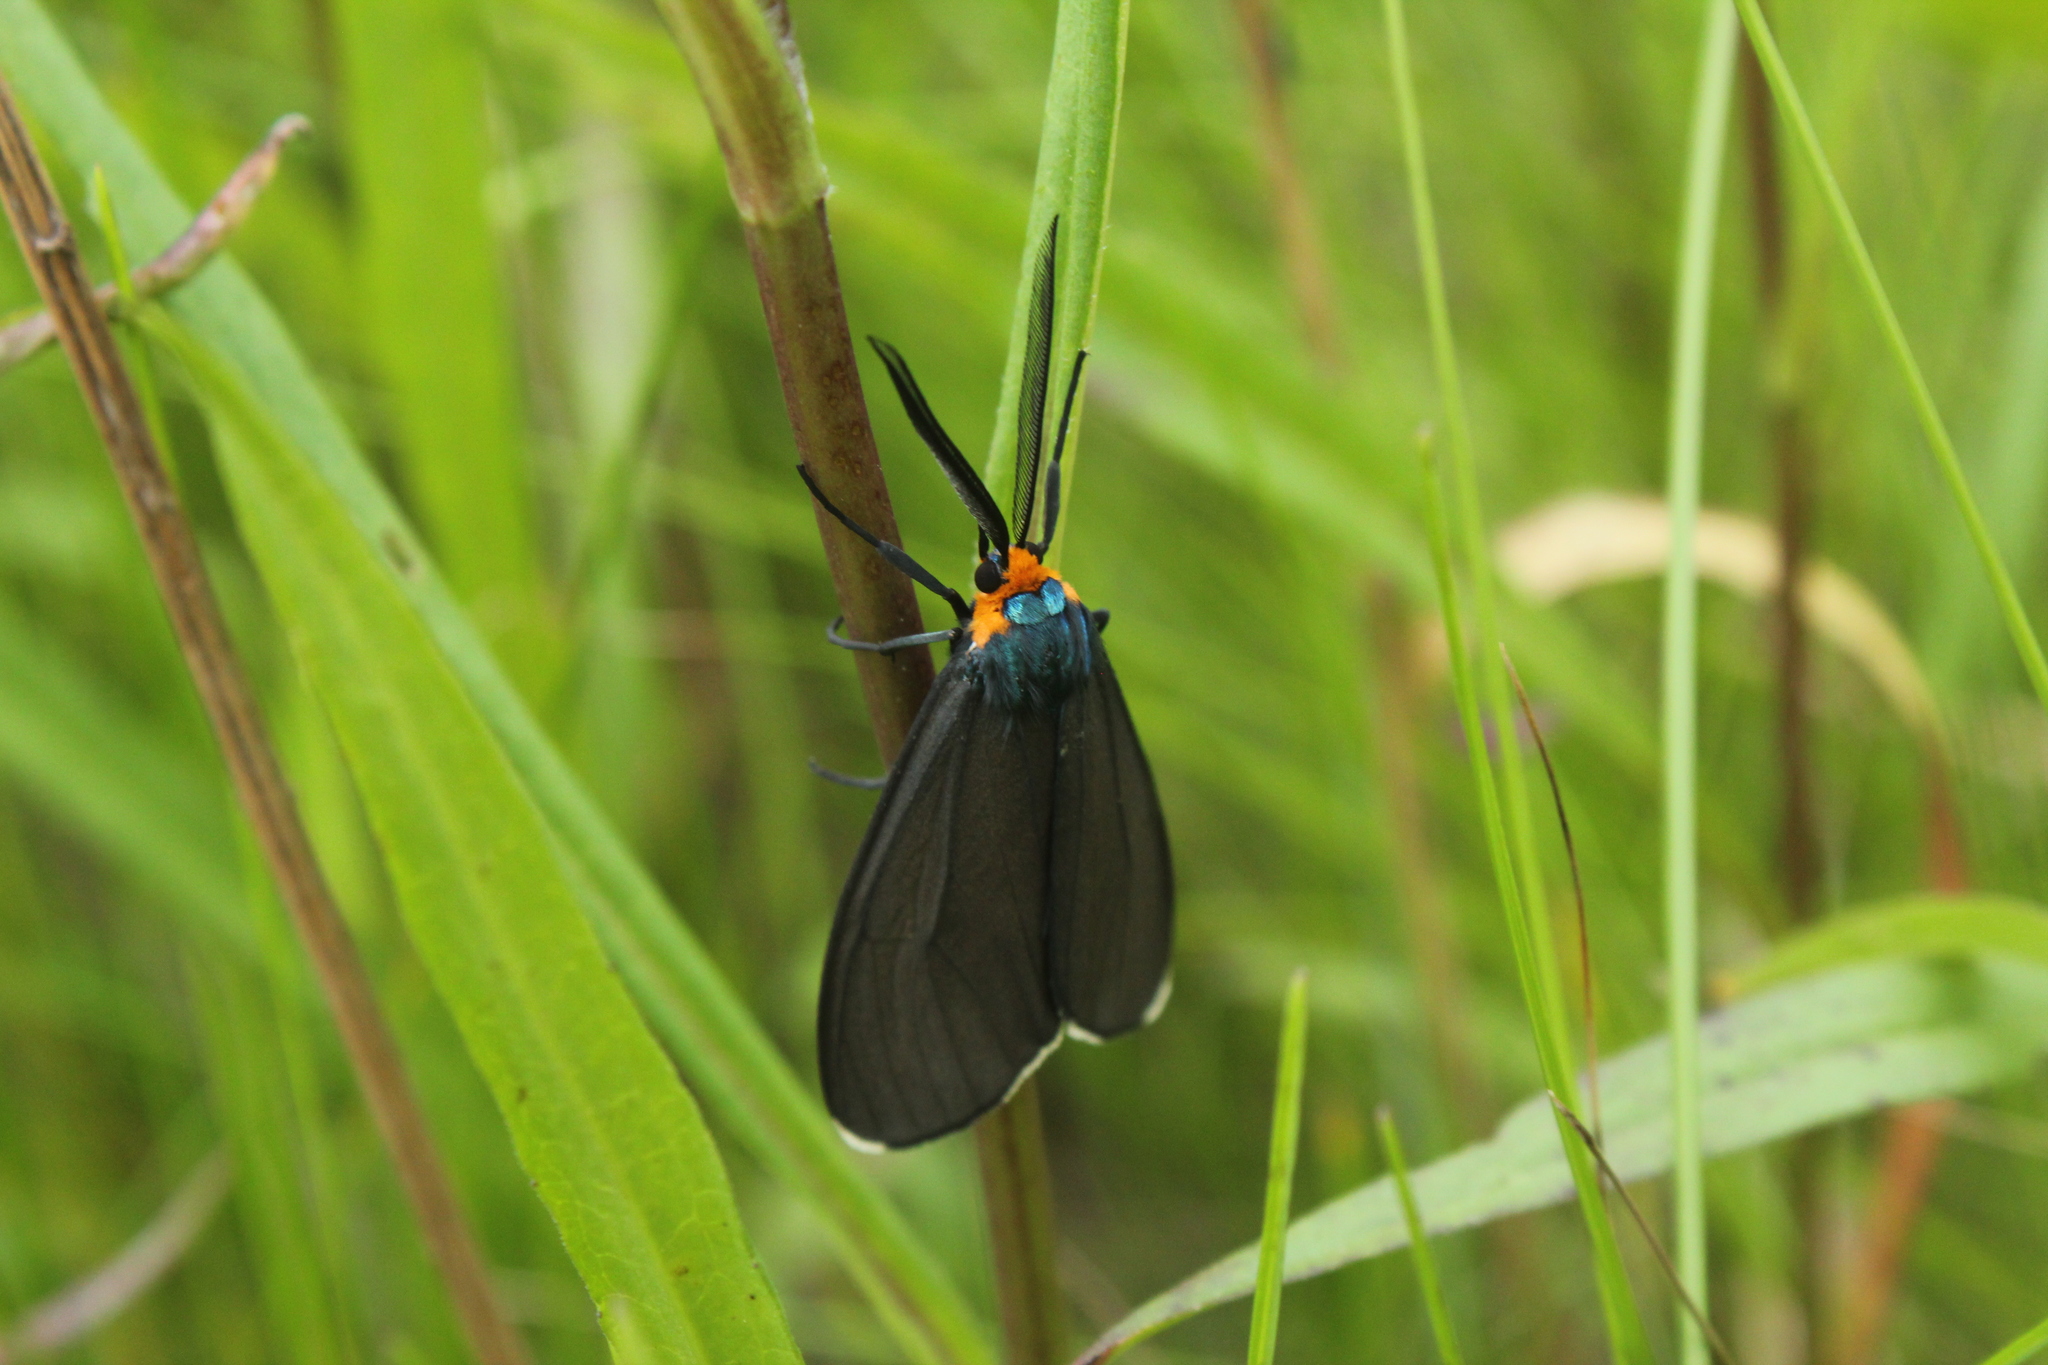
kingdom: Animalia
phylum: Arthropoda
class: Insecta
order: Lepidoptera
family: Erebidae
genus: Ctenucha
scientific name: Ctenucha virginica
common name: Virginia ctenucha moth
